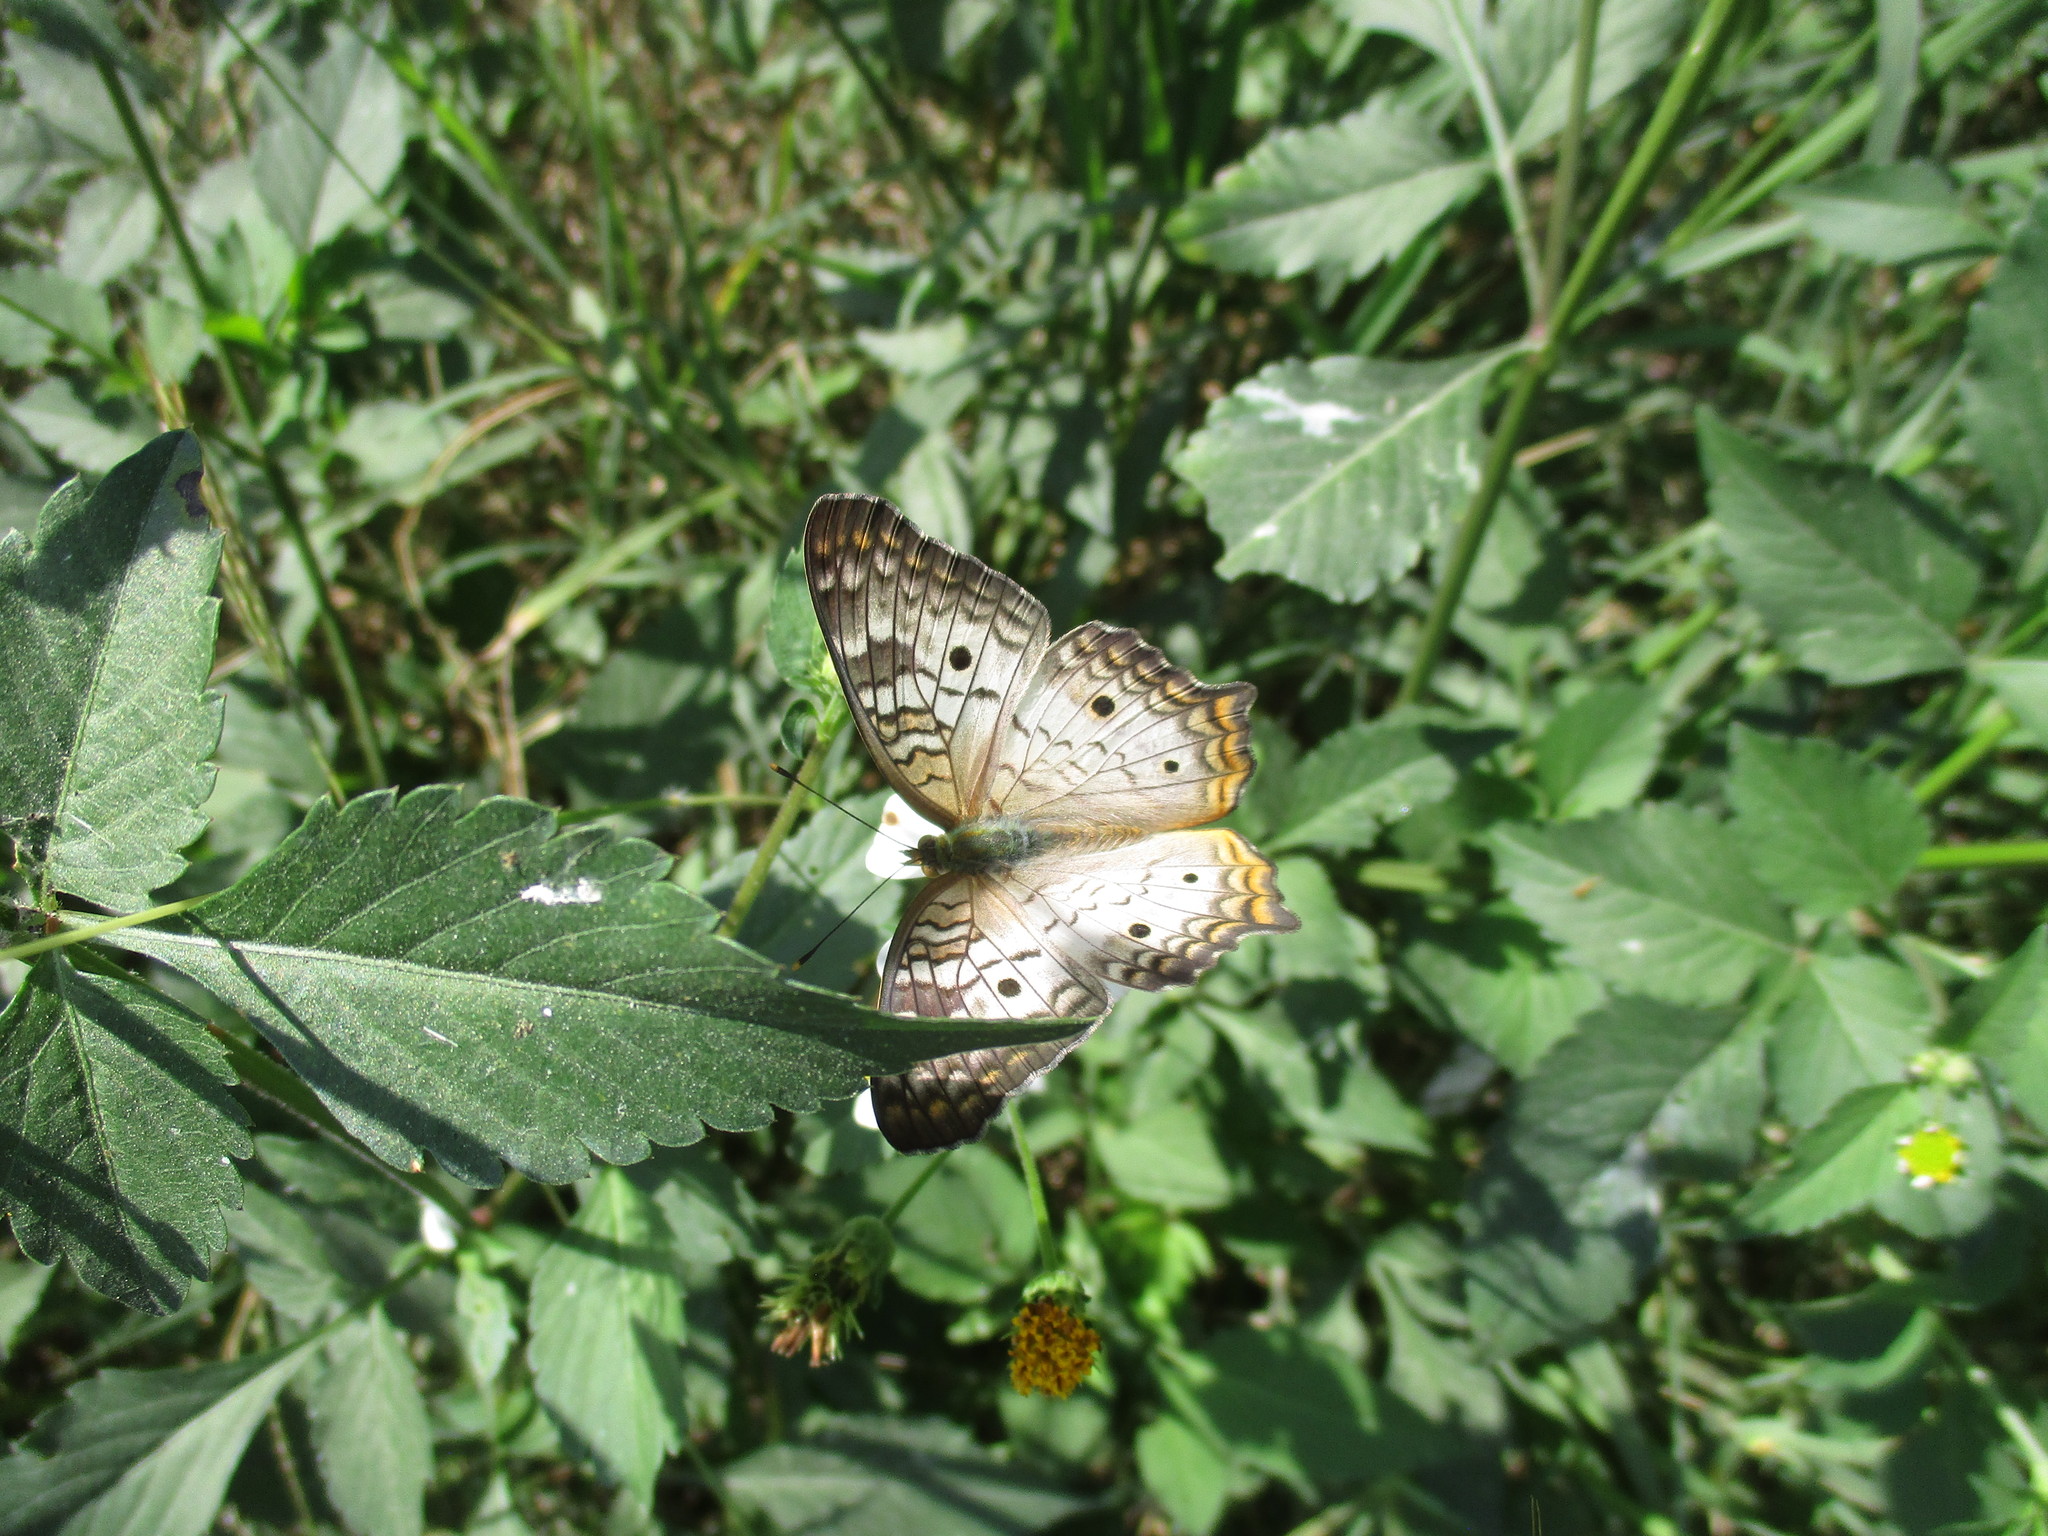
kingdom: Animalia
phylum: Arthropoda
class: Insecta
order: Lepidoptera
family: Nymphalidae
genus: Anartia
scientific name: Anartia jatrophae
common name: White peacock
